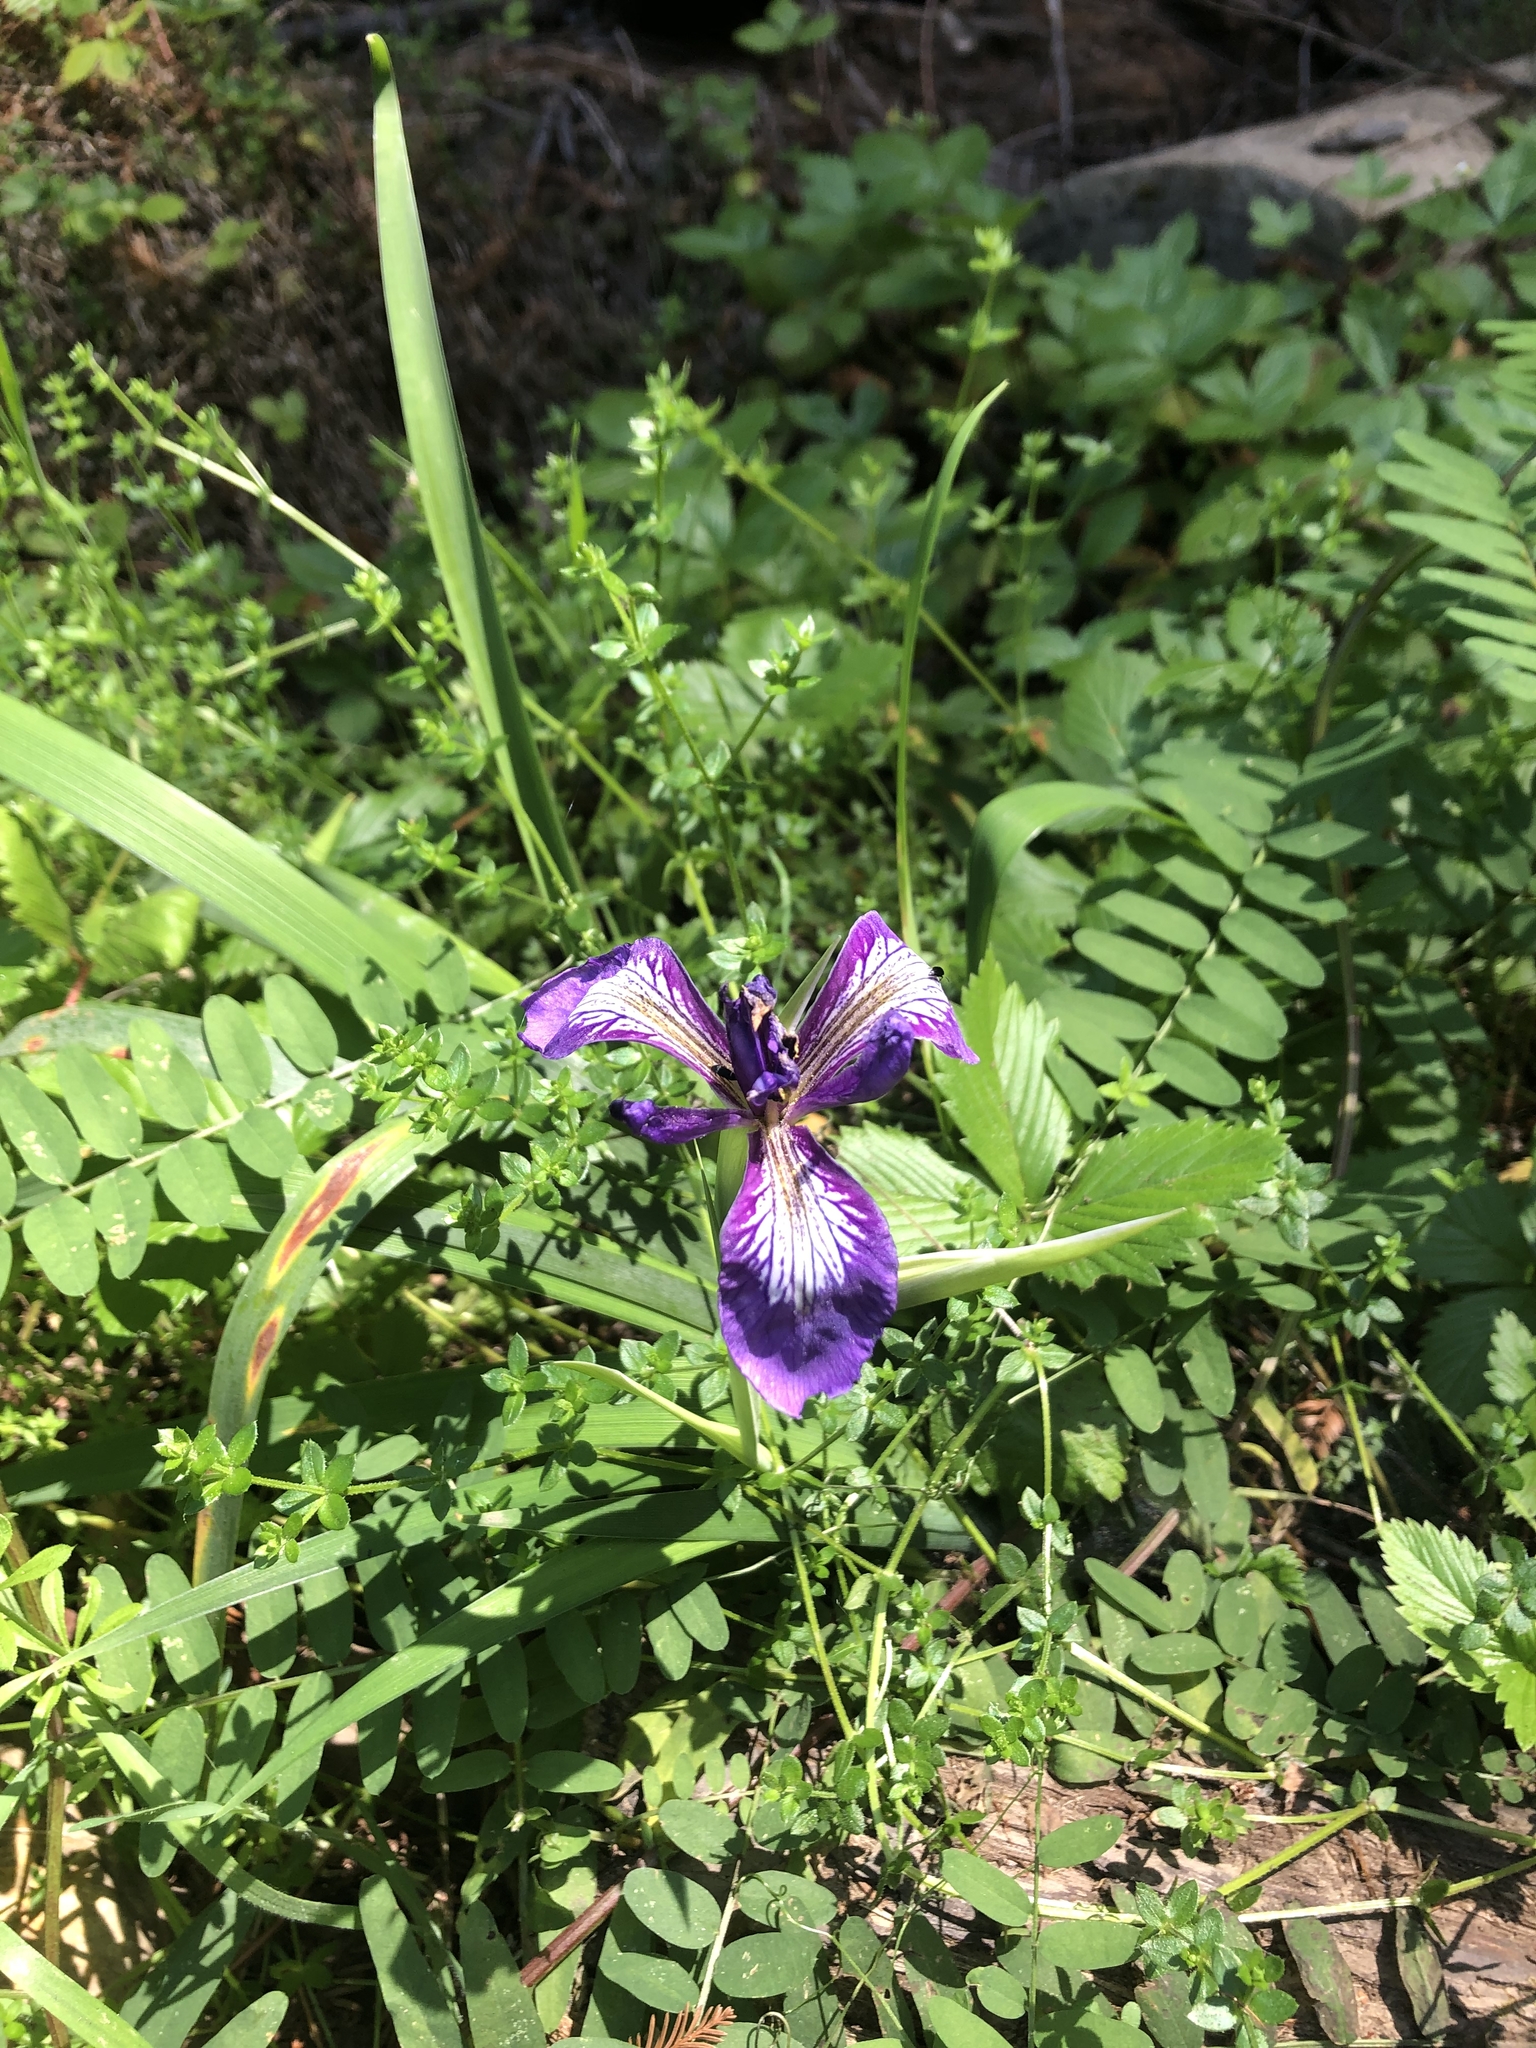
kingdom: Plantae
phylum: Tracheophyta
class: Liliopsida
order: Asparagales
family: Iridaceae
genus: Iris
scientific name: Iris douglasiana
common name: Marin iris
